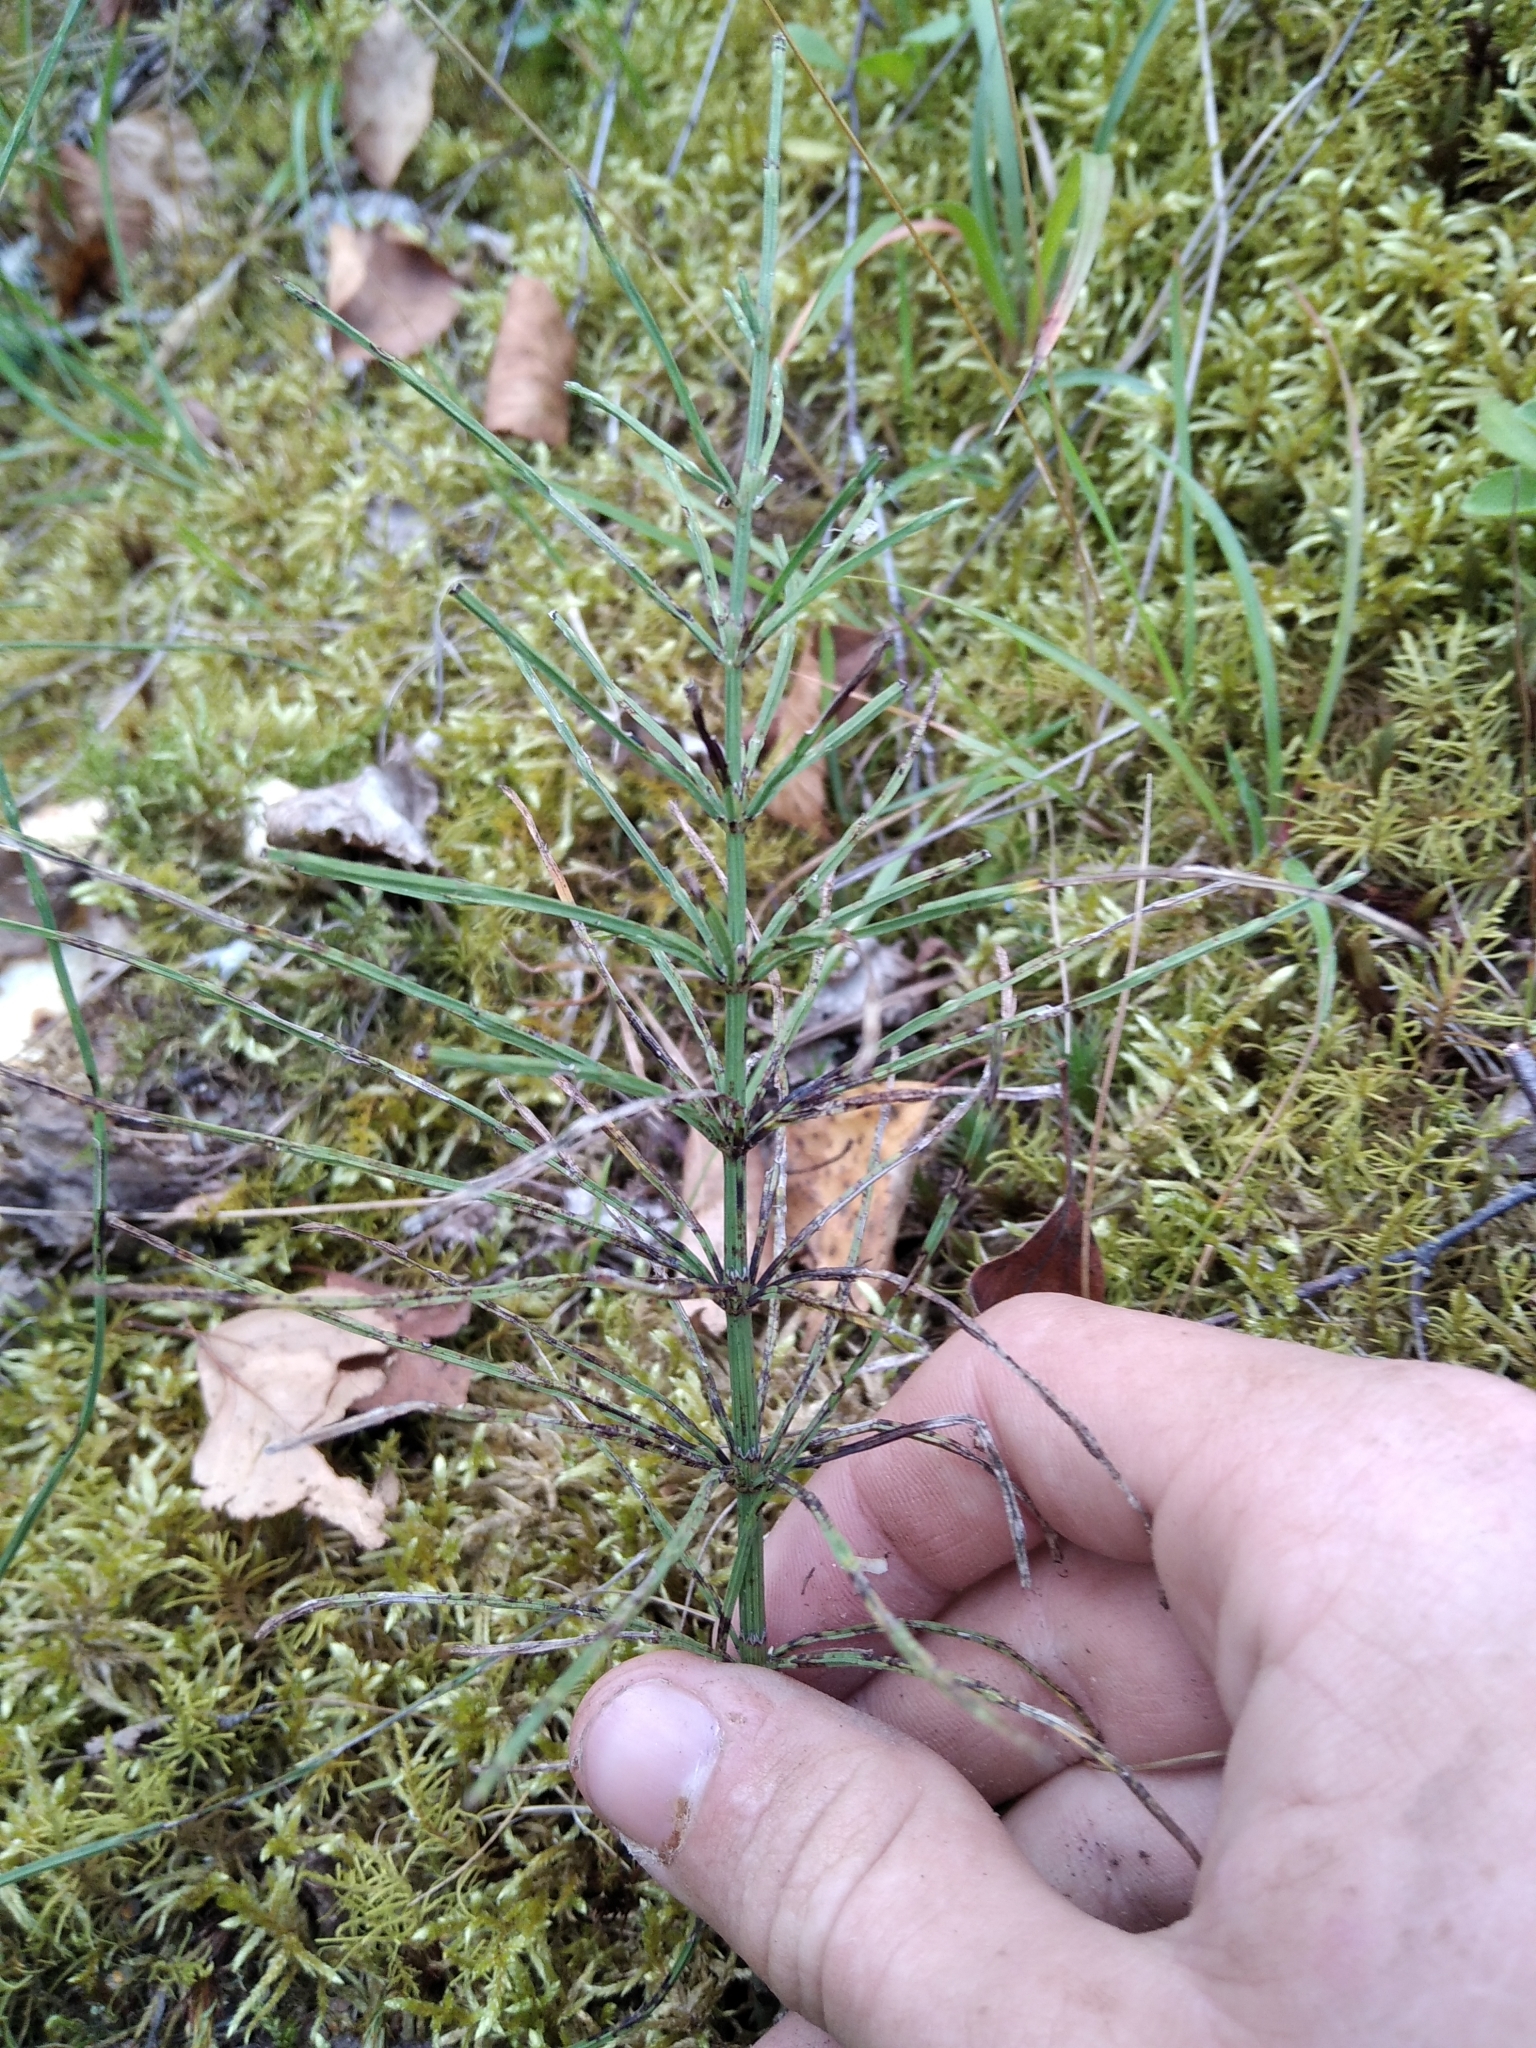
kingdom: Plantae
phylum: Tracheophyta
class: Polypodiopsida
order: Equisetales
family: Equisetaceae
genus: Equisetum
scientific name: Equisetum arvense
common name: Field horsetail
